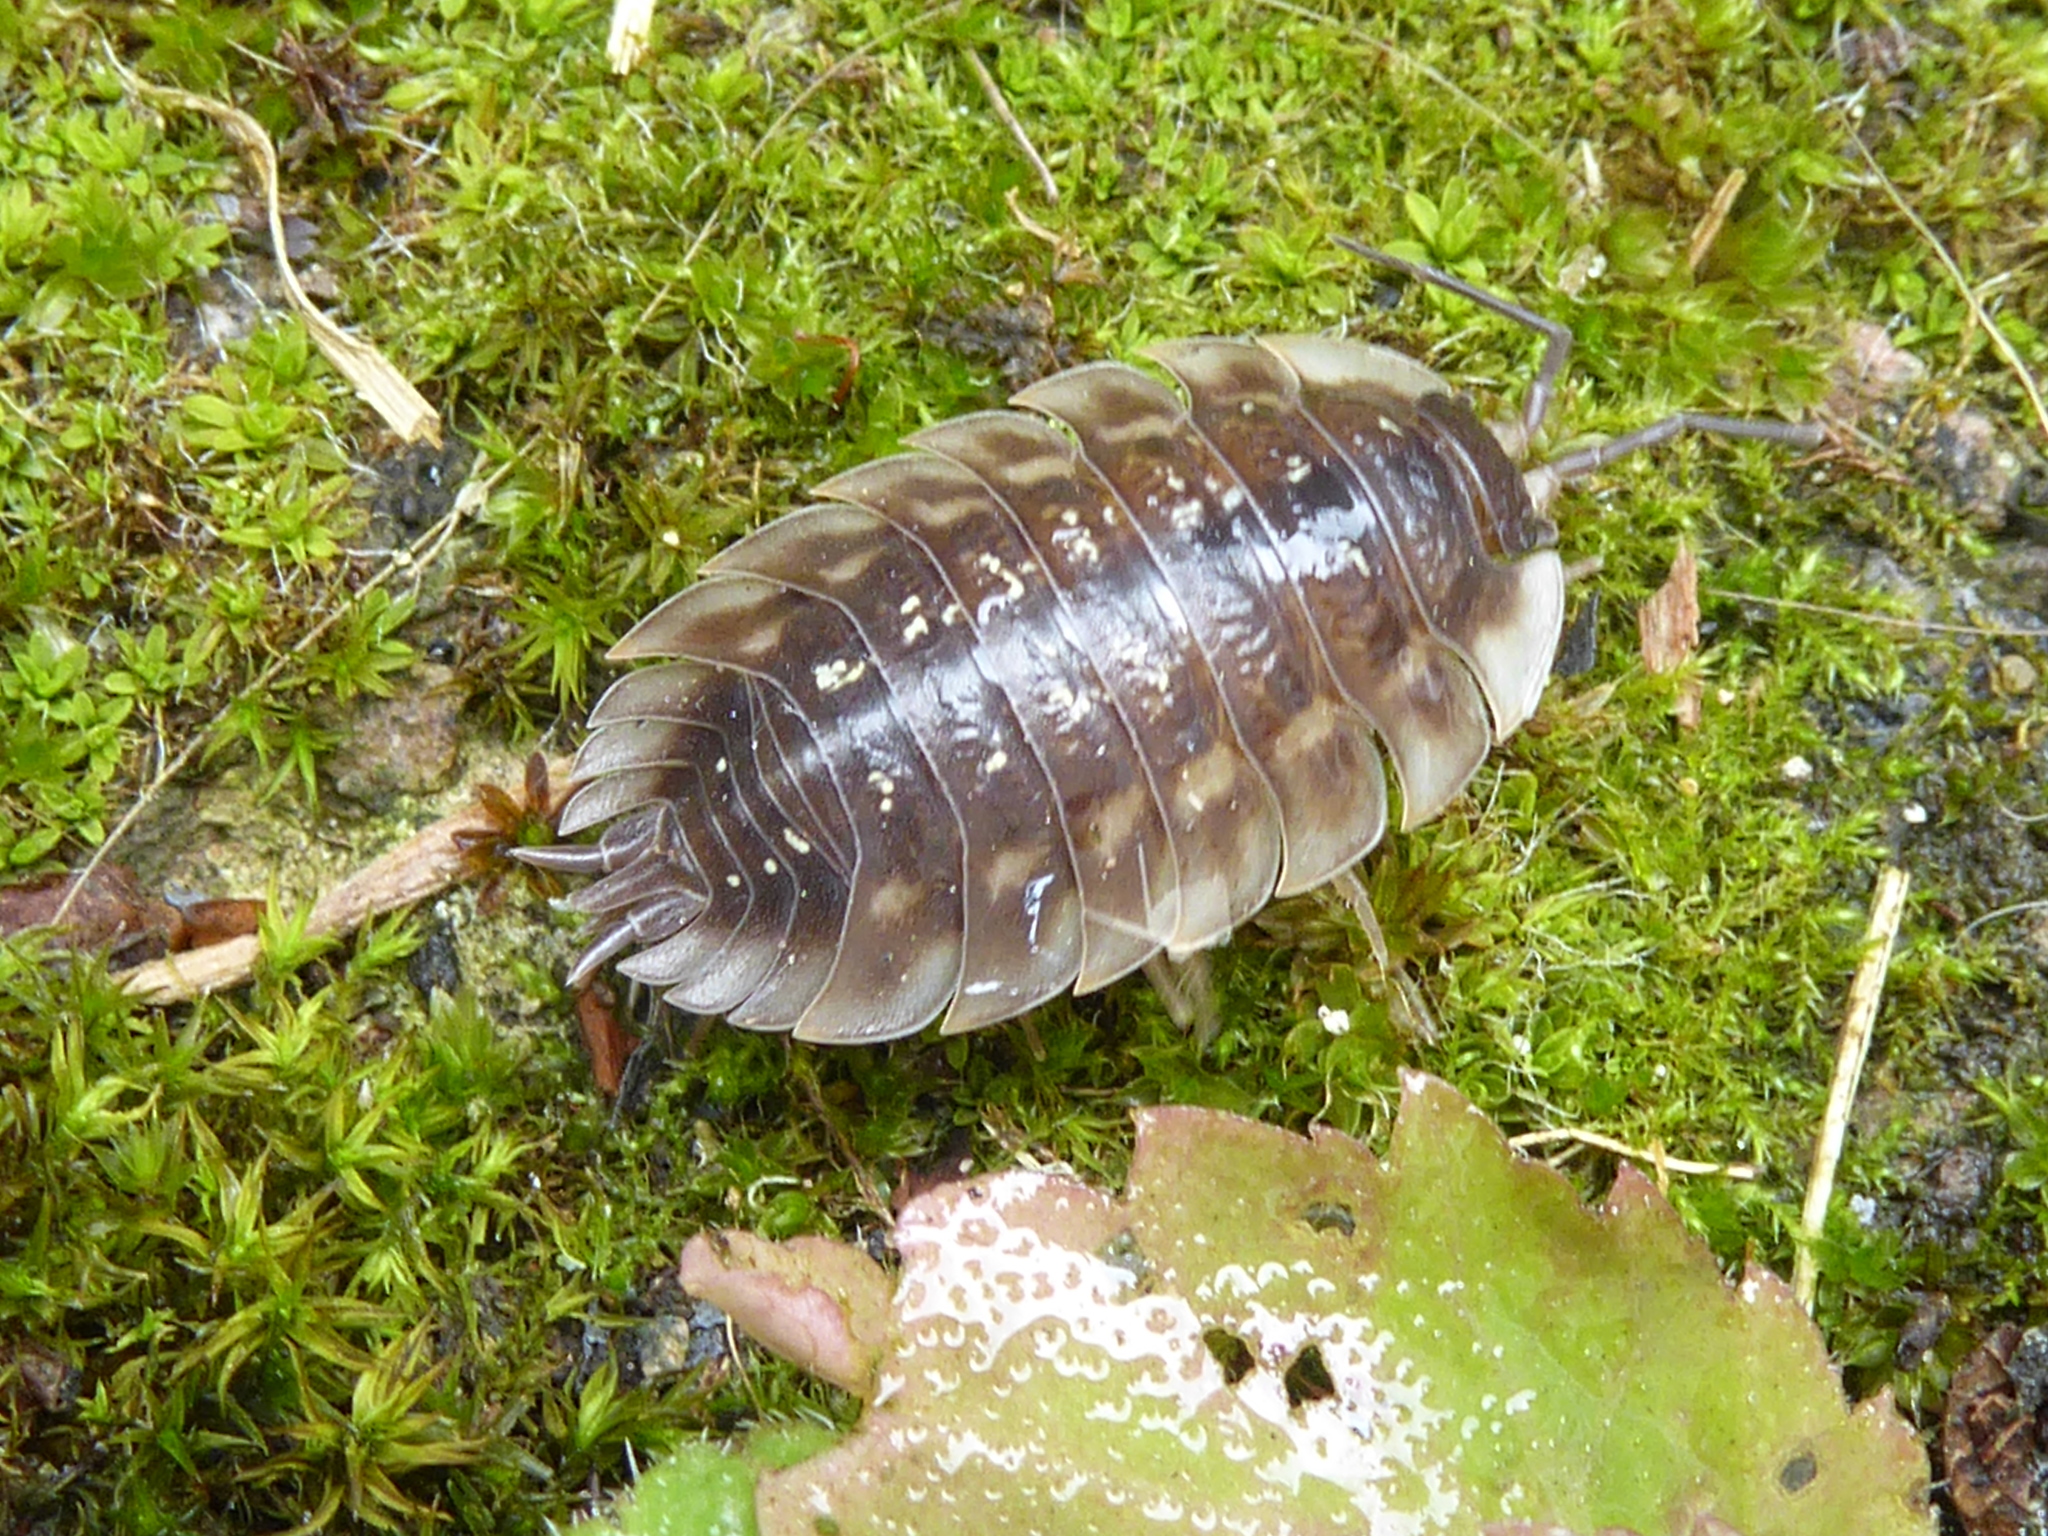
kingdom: Animalia
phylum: Arthropoda
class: Malacostraca
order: Isopoda
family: Oniscidae
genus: Oniscus
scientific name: Oniscus asellus
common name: Common shiny woodlouse
